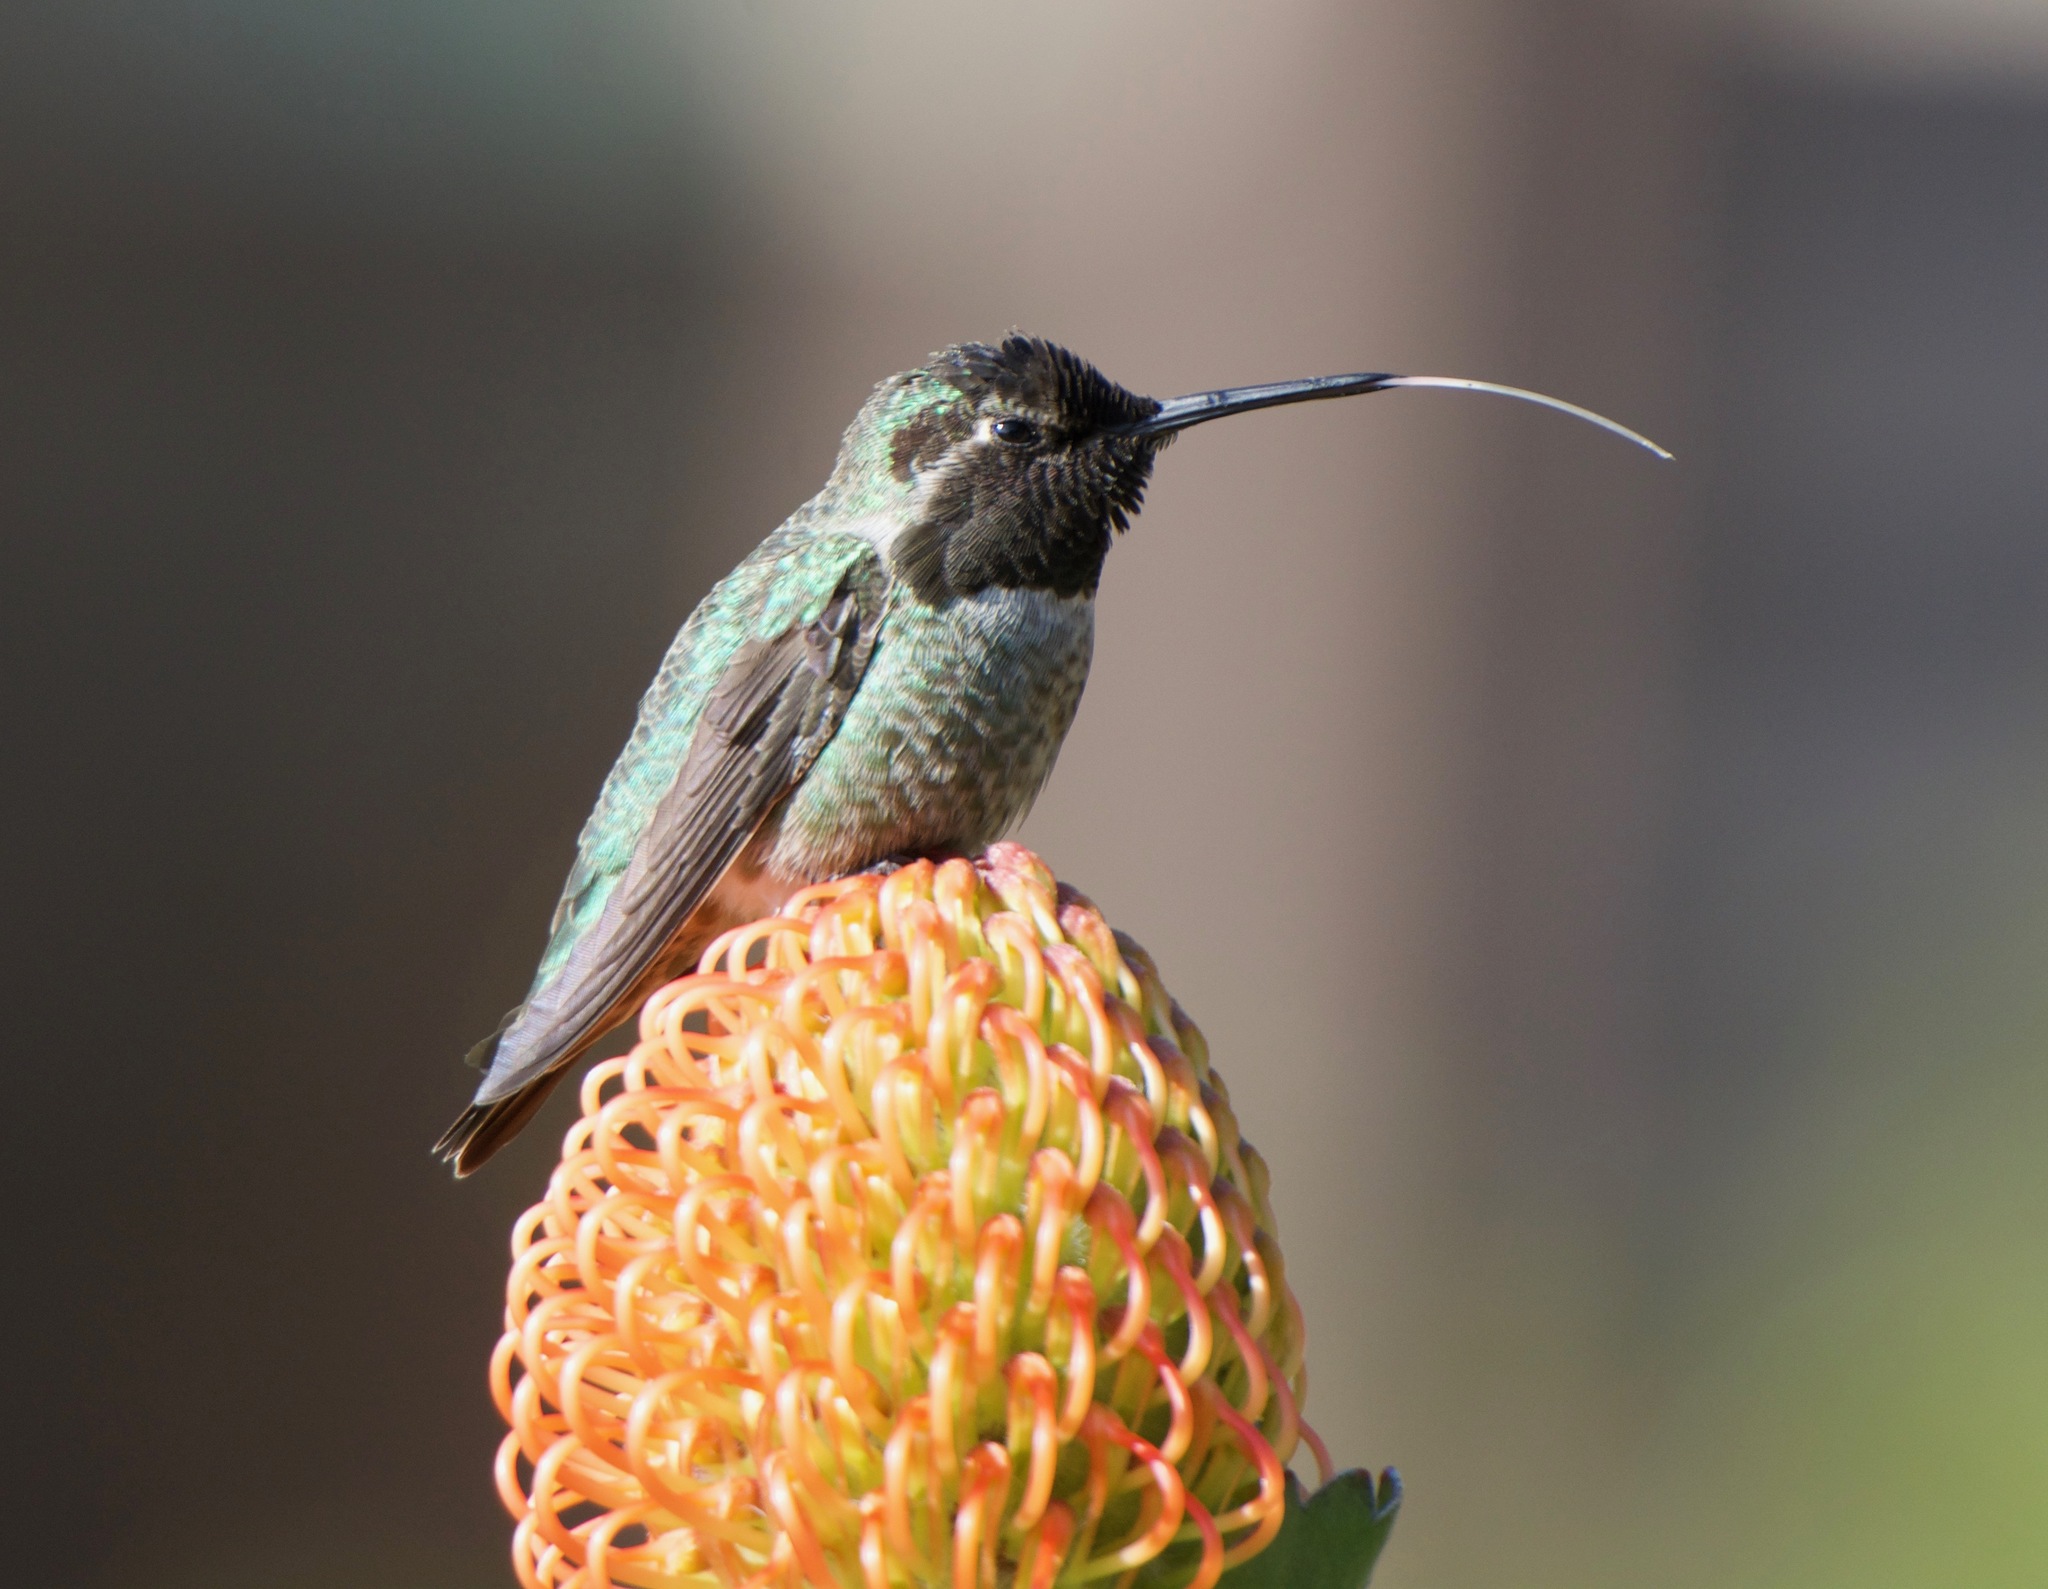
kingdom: Animalia
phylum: Chordata
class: Aves
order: Apodiformes
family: Trochilidae
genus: Calypte
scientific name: Calypte anna
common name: Anna's hummingbird
